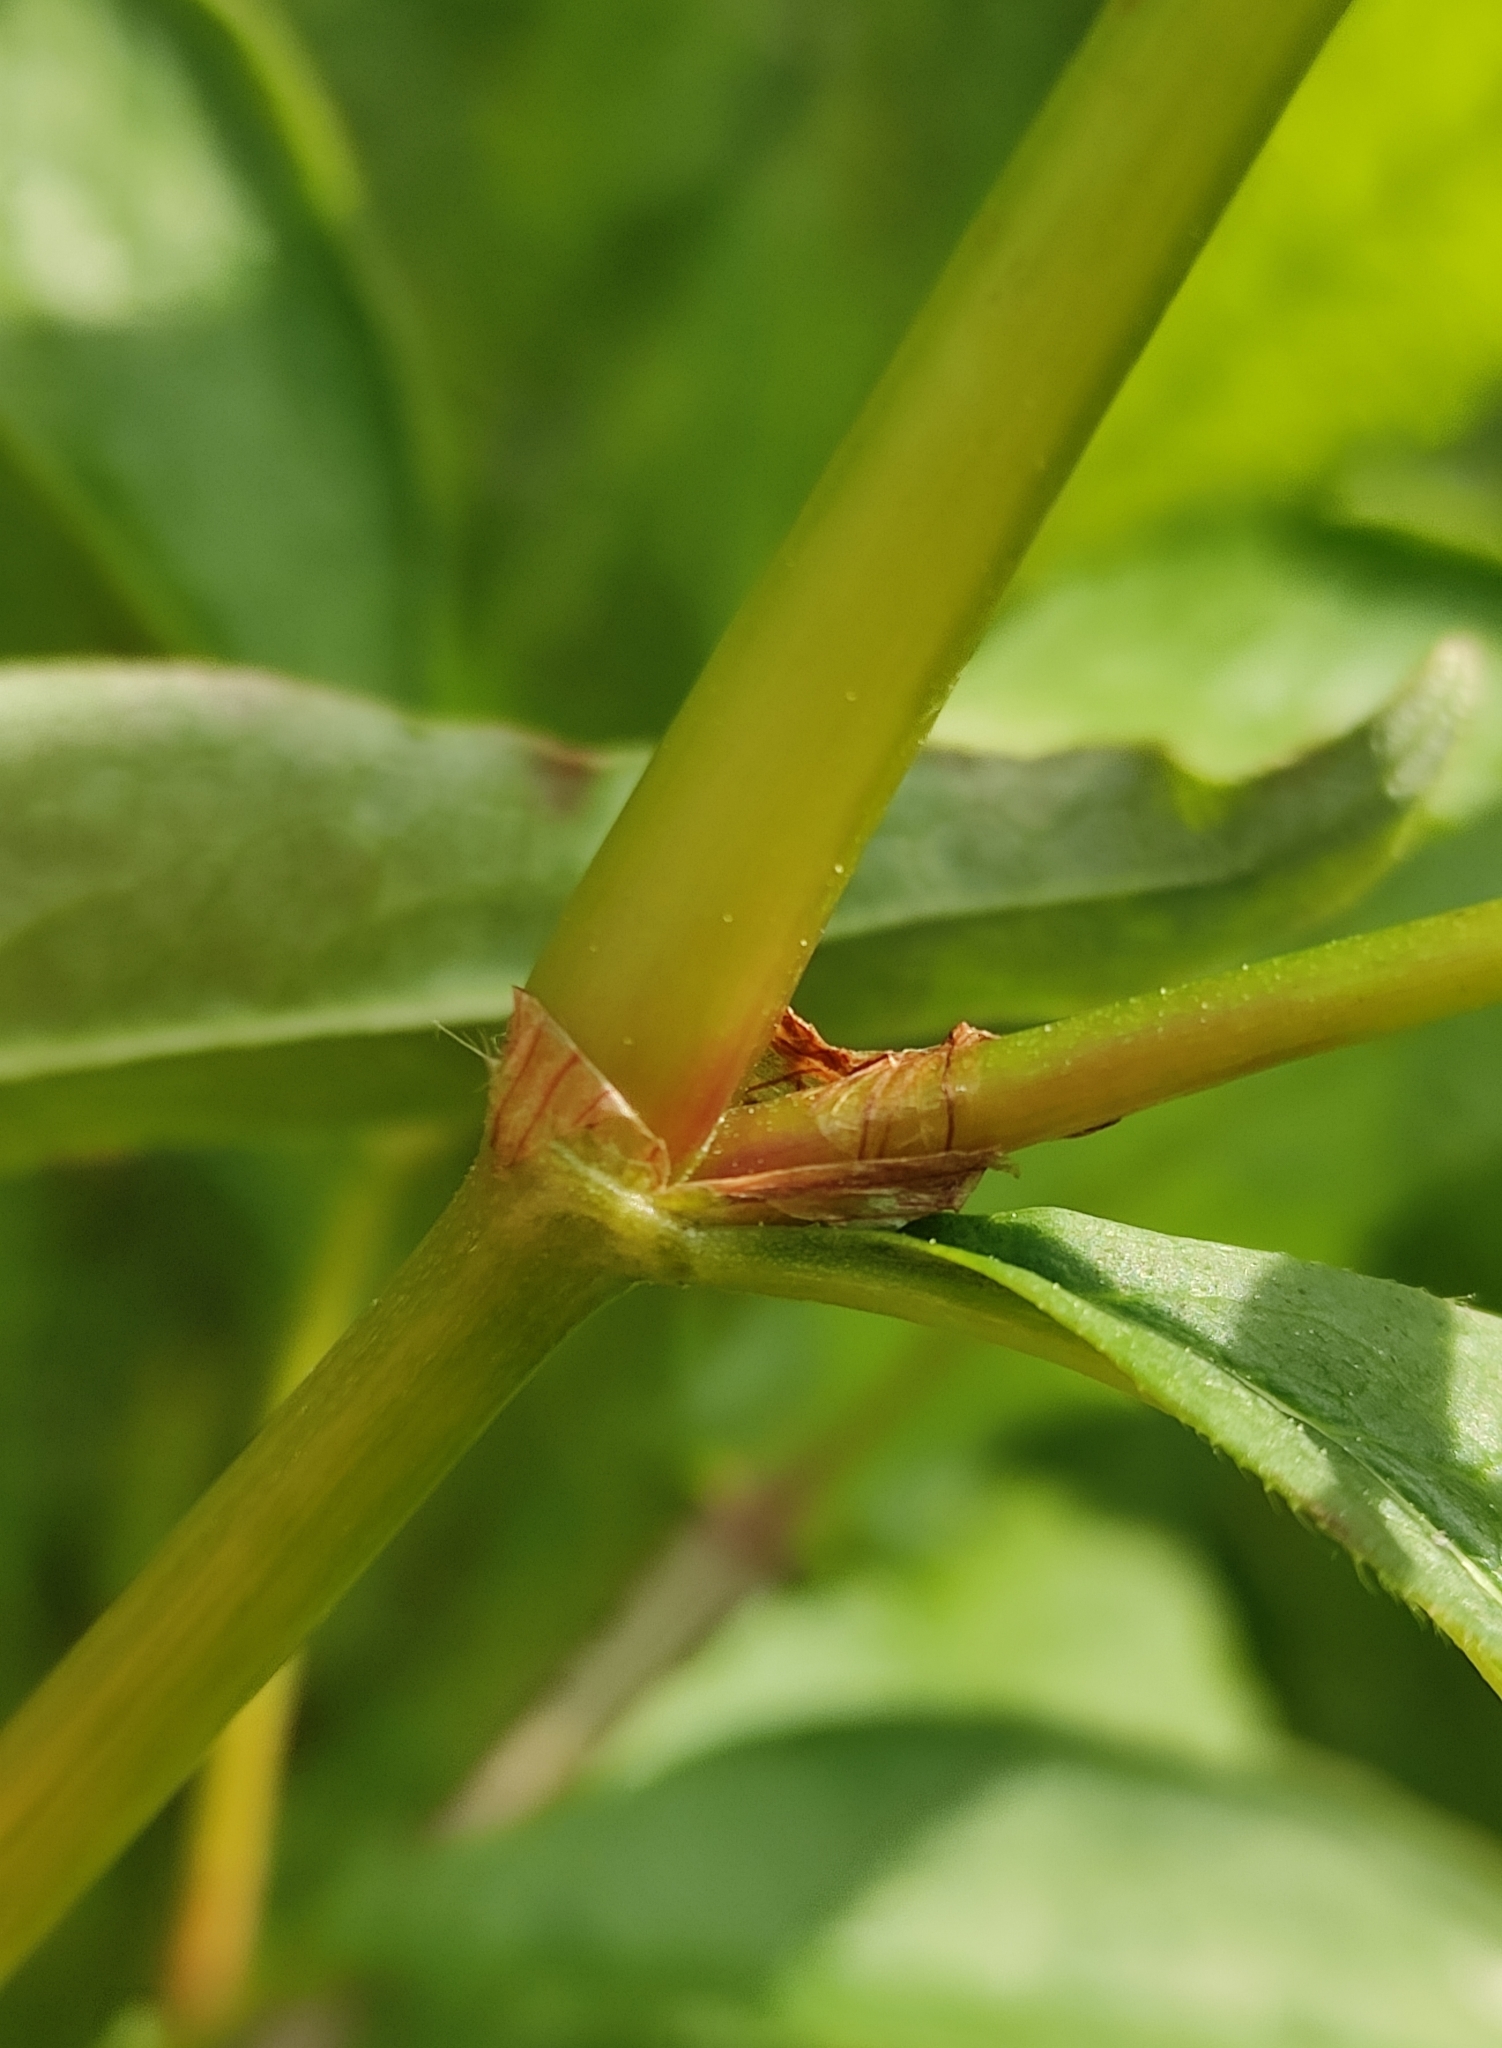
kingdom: Plantae
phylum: Tracheophyta
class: Magnoliopsida
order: Caryophyllales
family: Polygonaceae
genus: Koenigia
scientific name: Koenigia alpina
